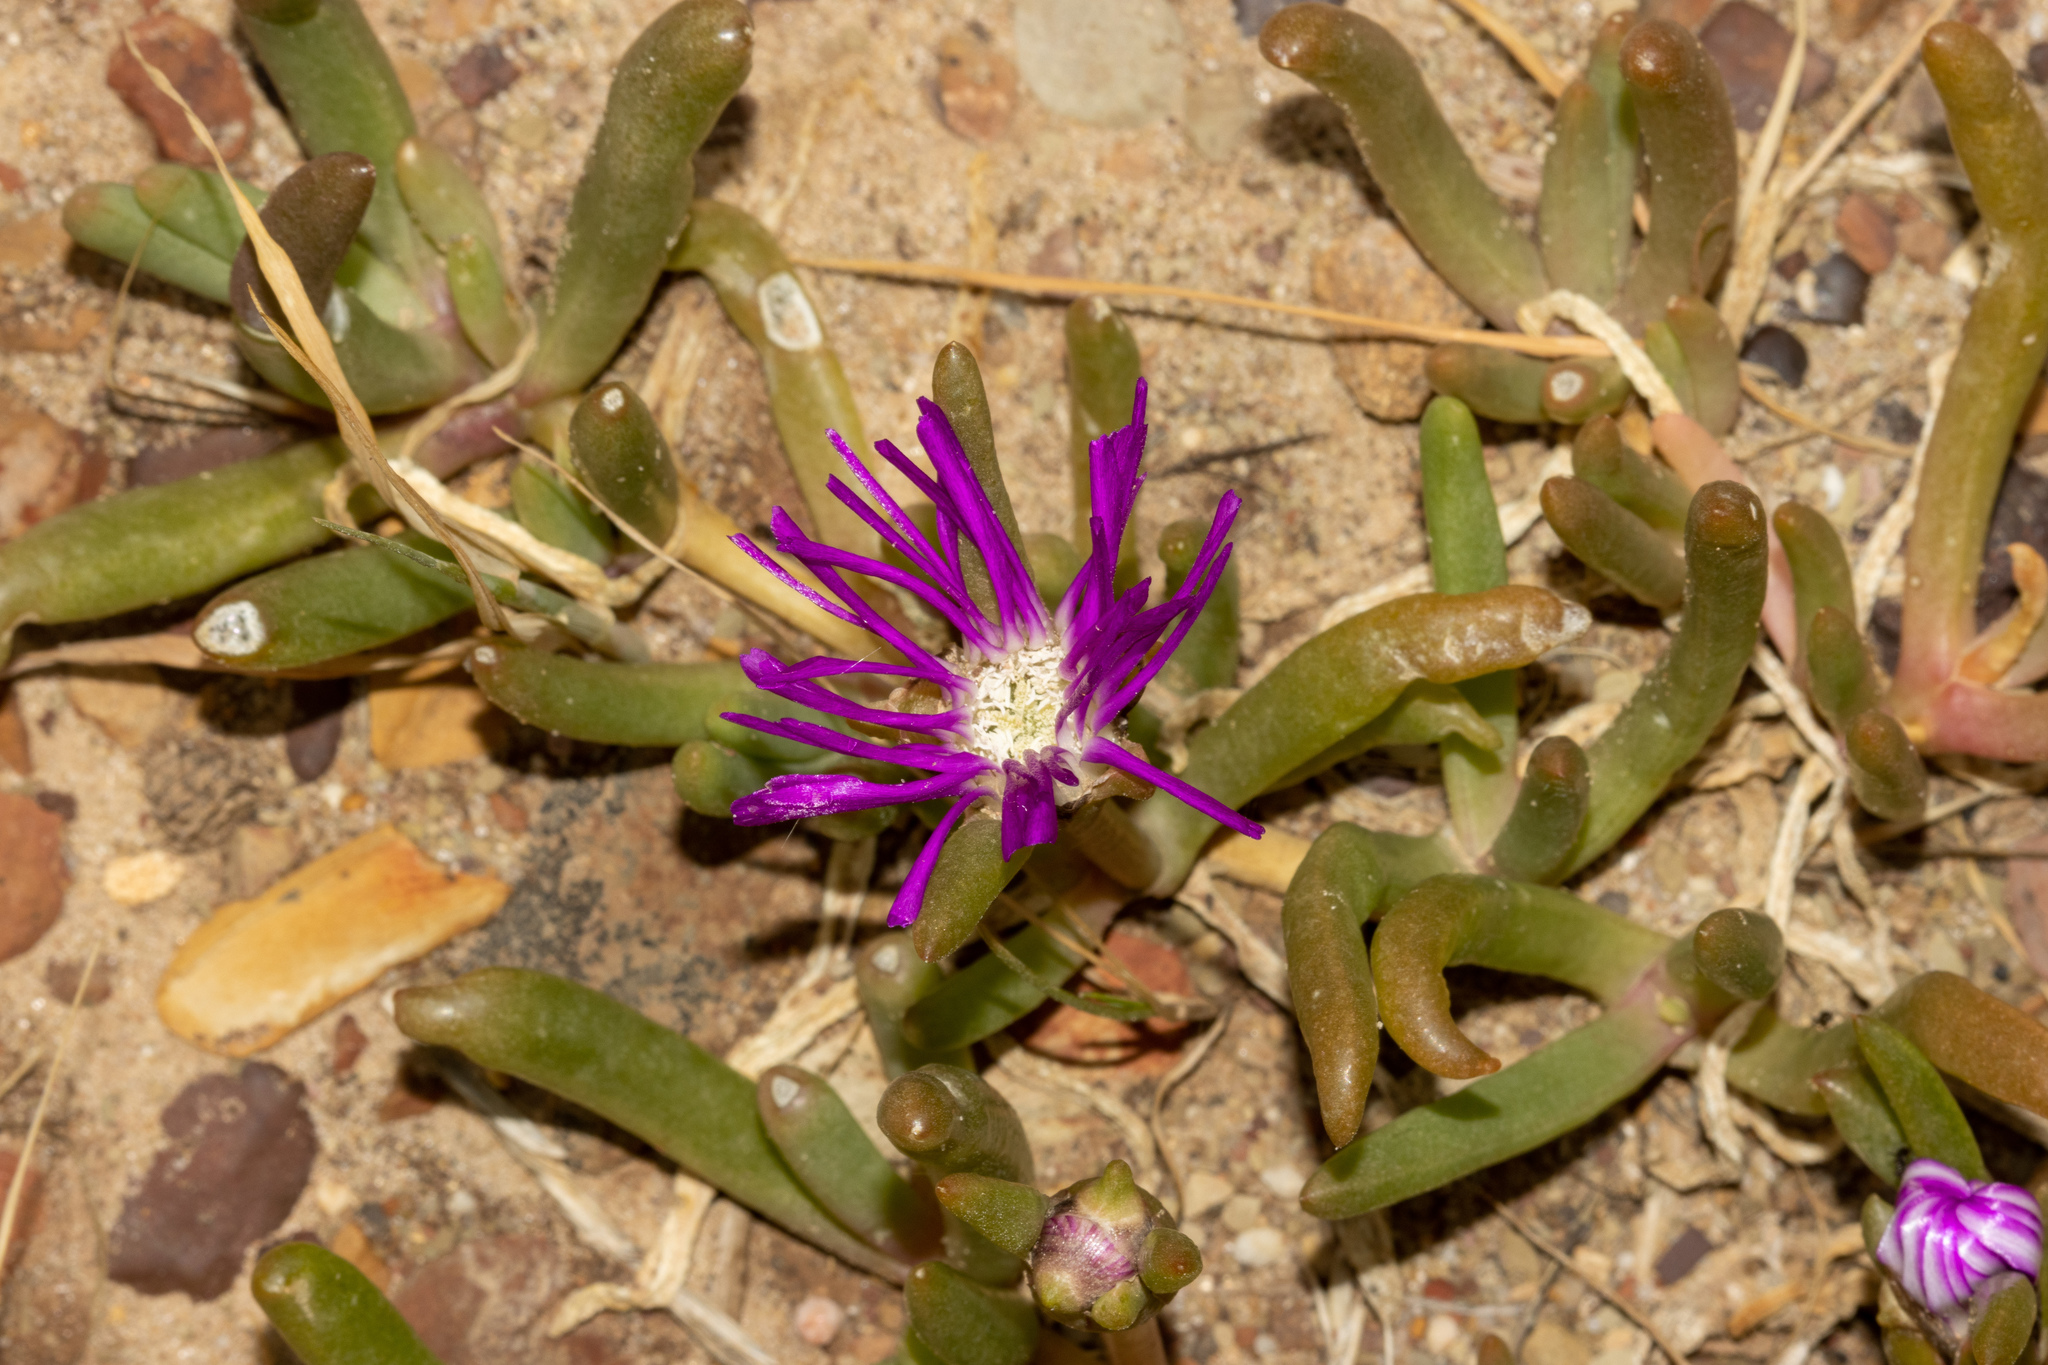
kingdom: Plantae
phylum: Tracheophyta
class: Magnoliopsida
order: Caryophyllales
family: Aizoaceae
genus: Disphyma
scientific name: Disphyma crassifolium
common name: Purple dewplant
